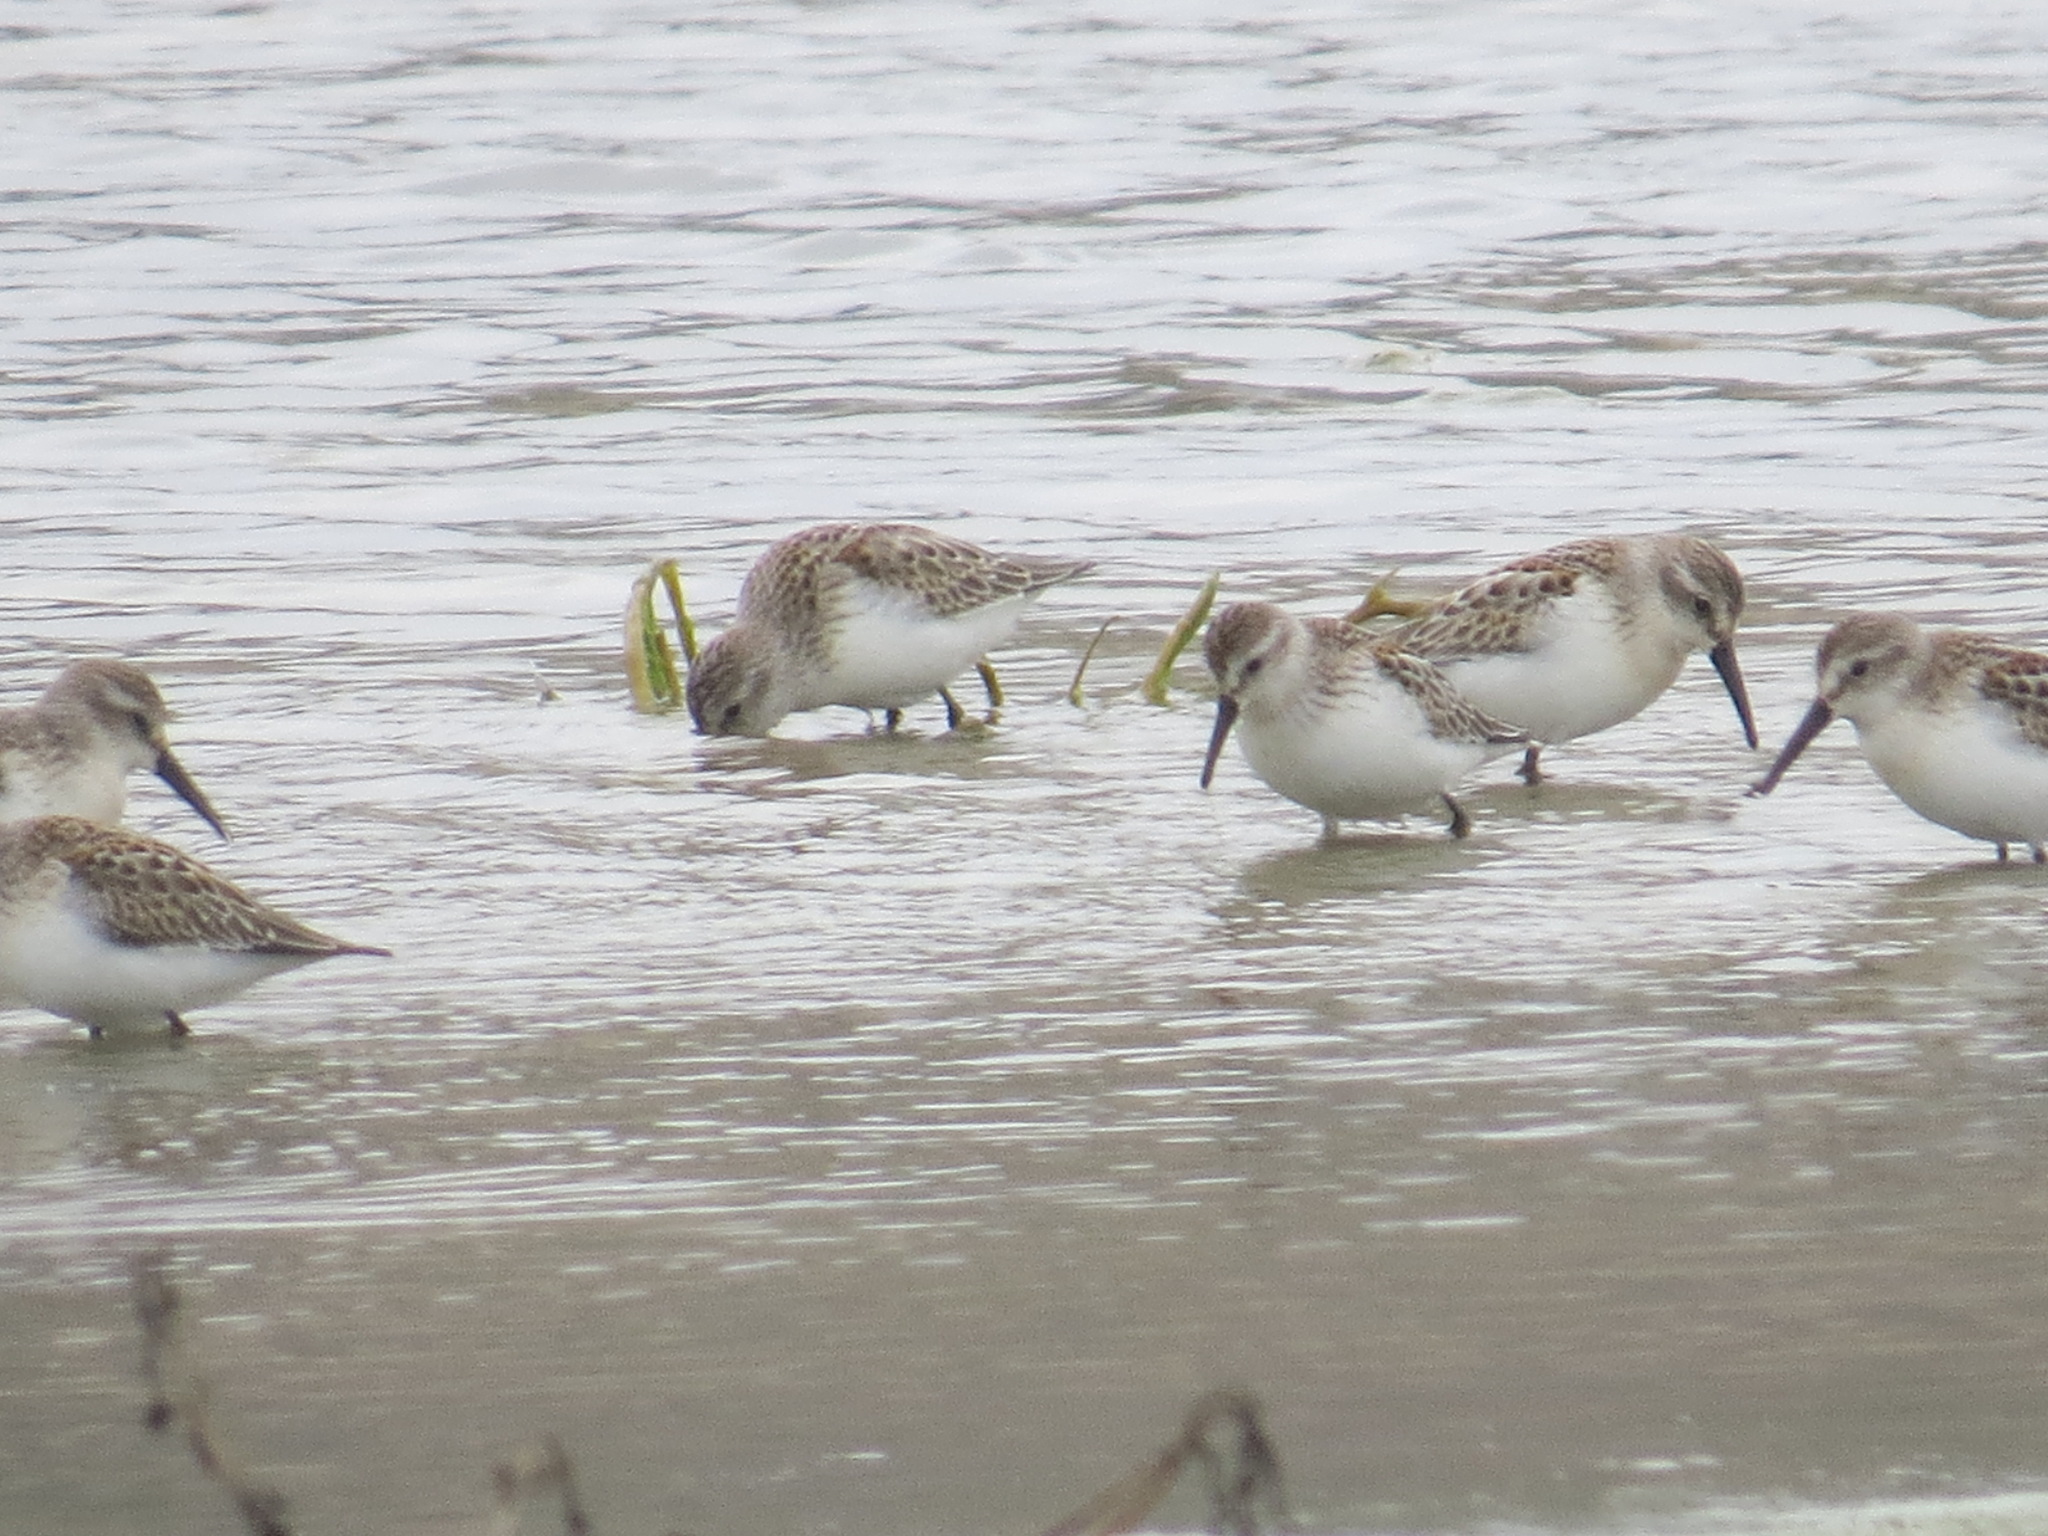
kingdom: Animalia
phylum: Chordata
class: Aves
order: Charadriiformes
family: Scolopacidae
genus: Calidris
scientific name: Calidris mauri
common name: Western sandpiper
